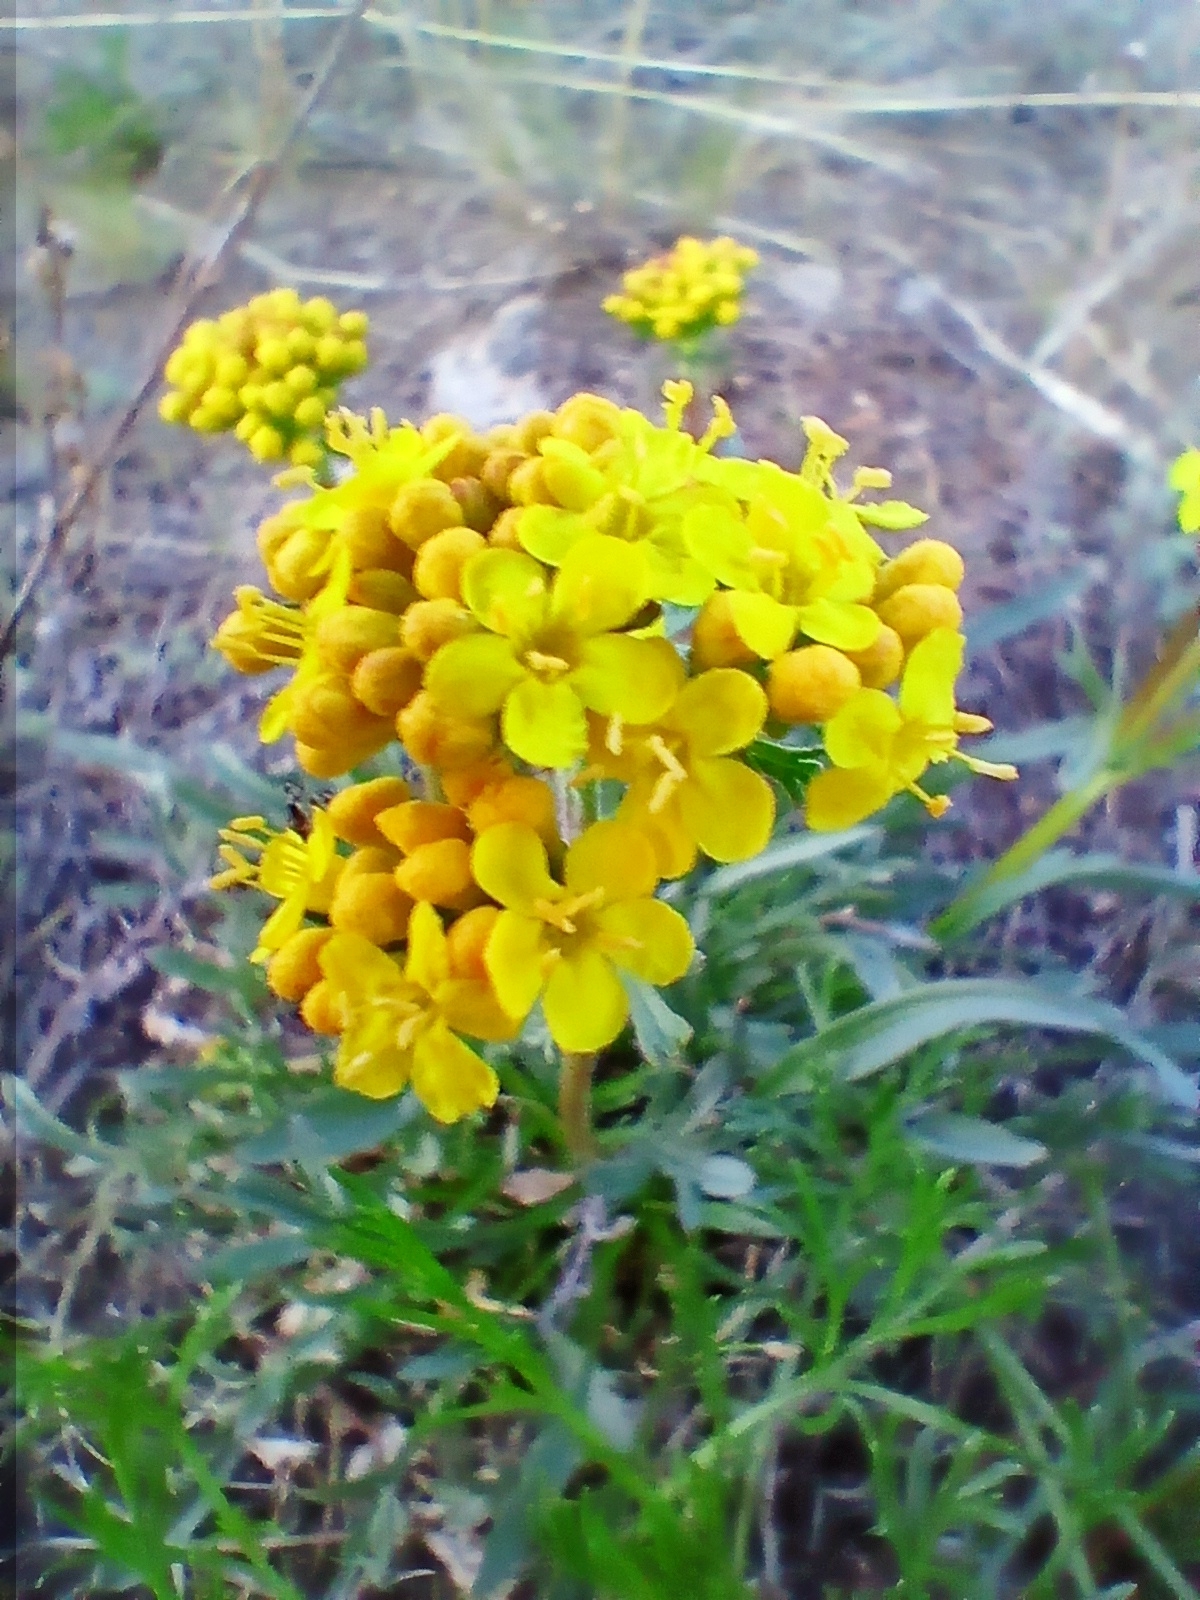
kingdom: Plantae
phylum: Tracheophyta
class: Magnoliopsida
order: Dipsacales
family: Caprifoliaceae
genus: Patrinia
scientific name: Patrinia sibirica
